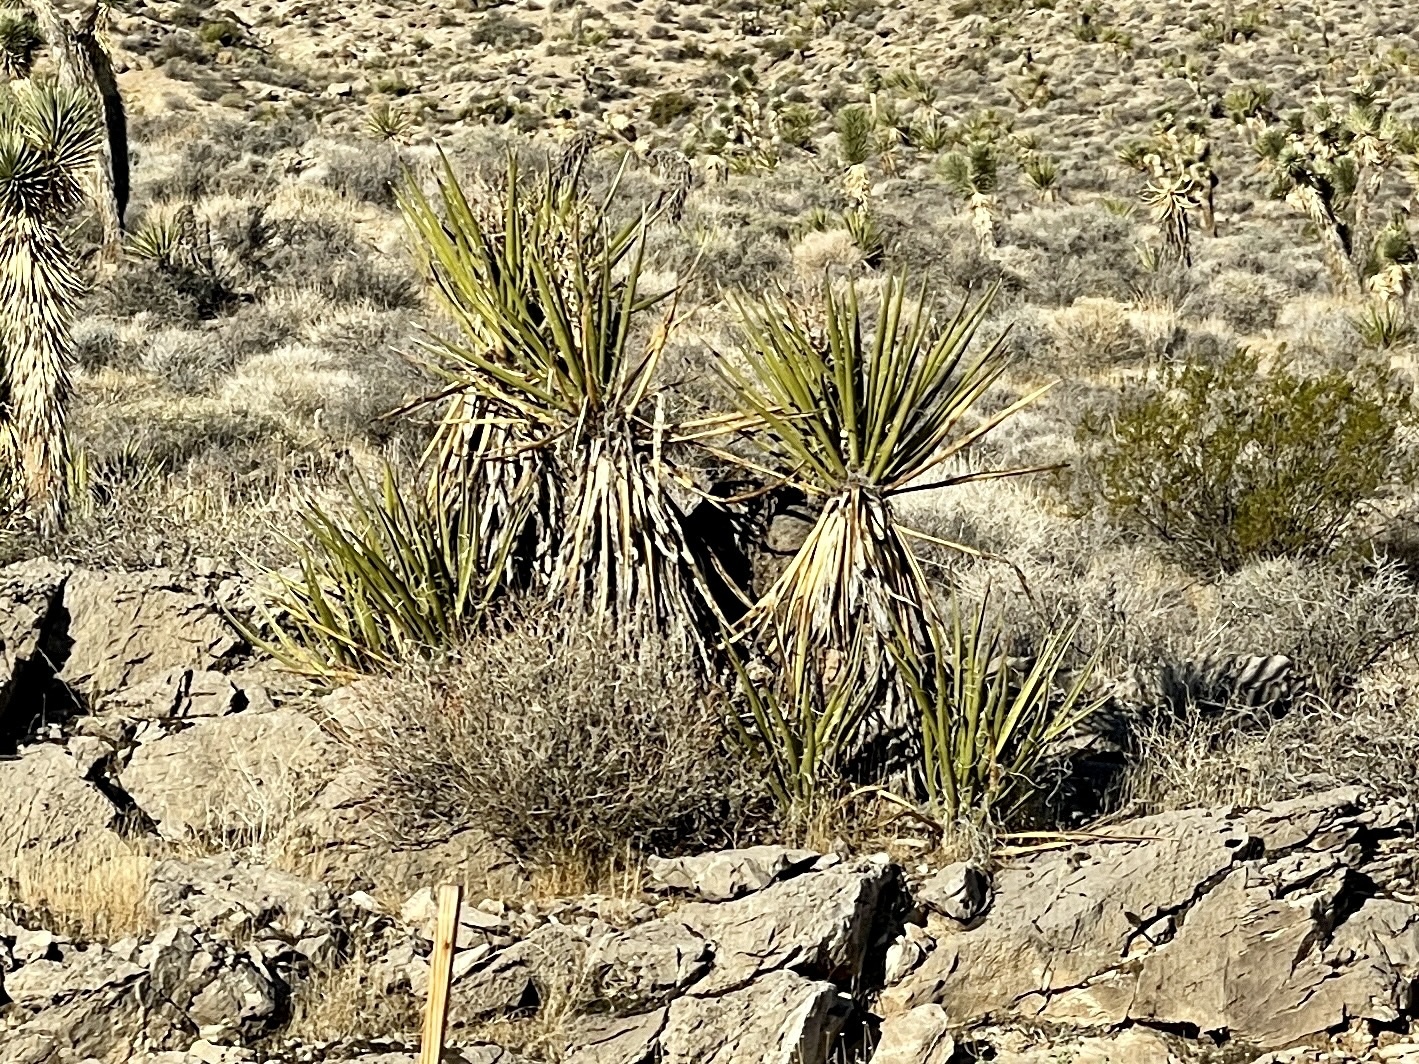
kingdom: Plantae
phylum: Tracheophyta
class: Liliopsida
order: Asparagales
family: Asparagaceae
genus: Yucca
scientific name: Yucca schidigera
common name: Mojave yucca
